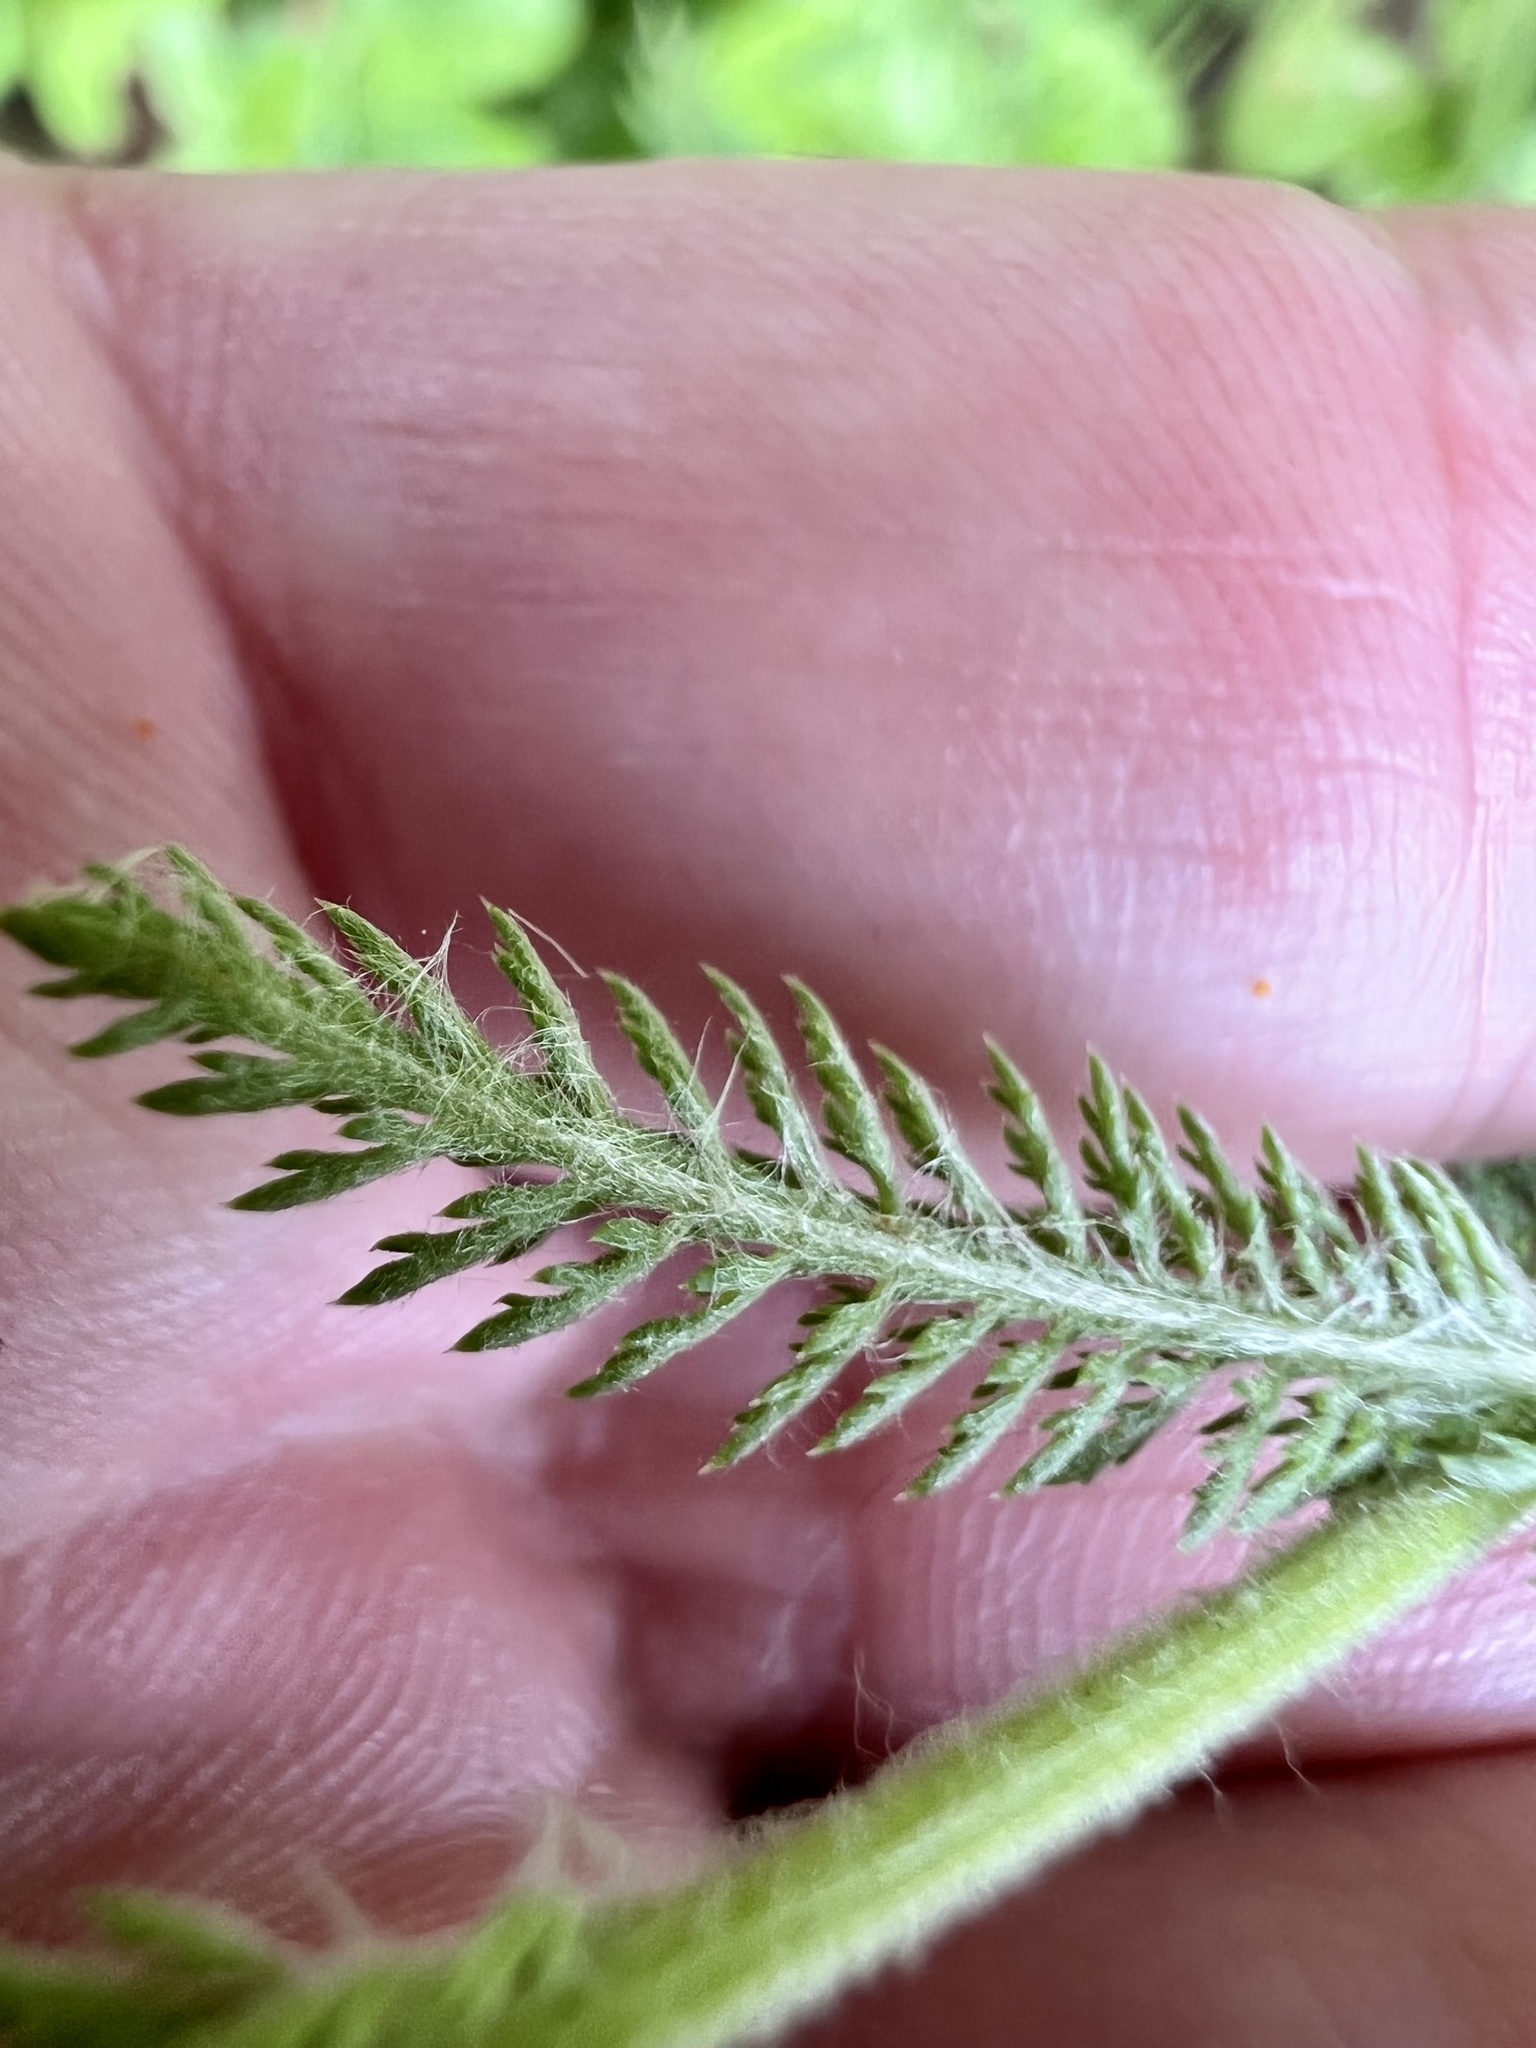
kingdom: Plantae
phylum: Tracheophyta
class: Magnoliopsida
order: Asterales
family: Asteraceae
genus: Achillea
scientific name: Achillea millefolium
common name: Yarrow
